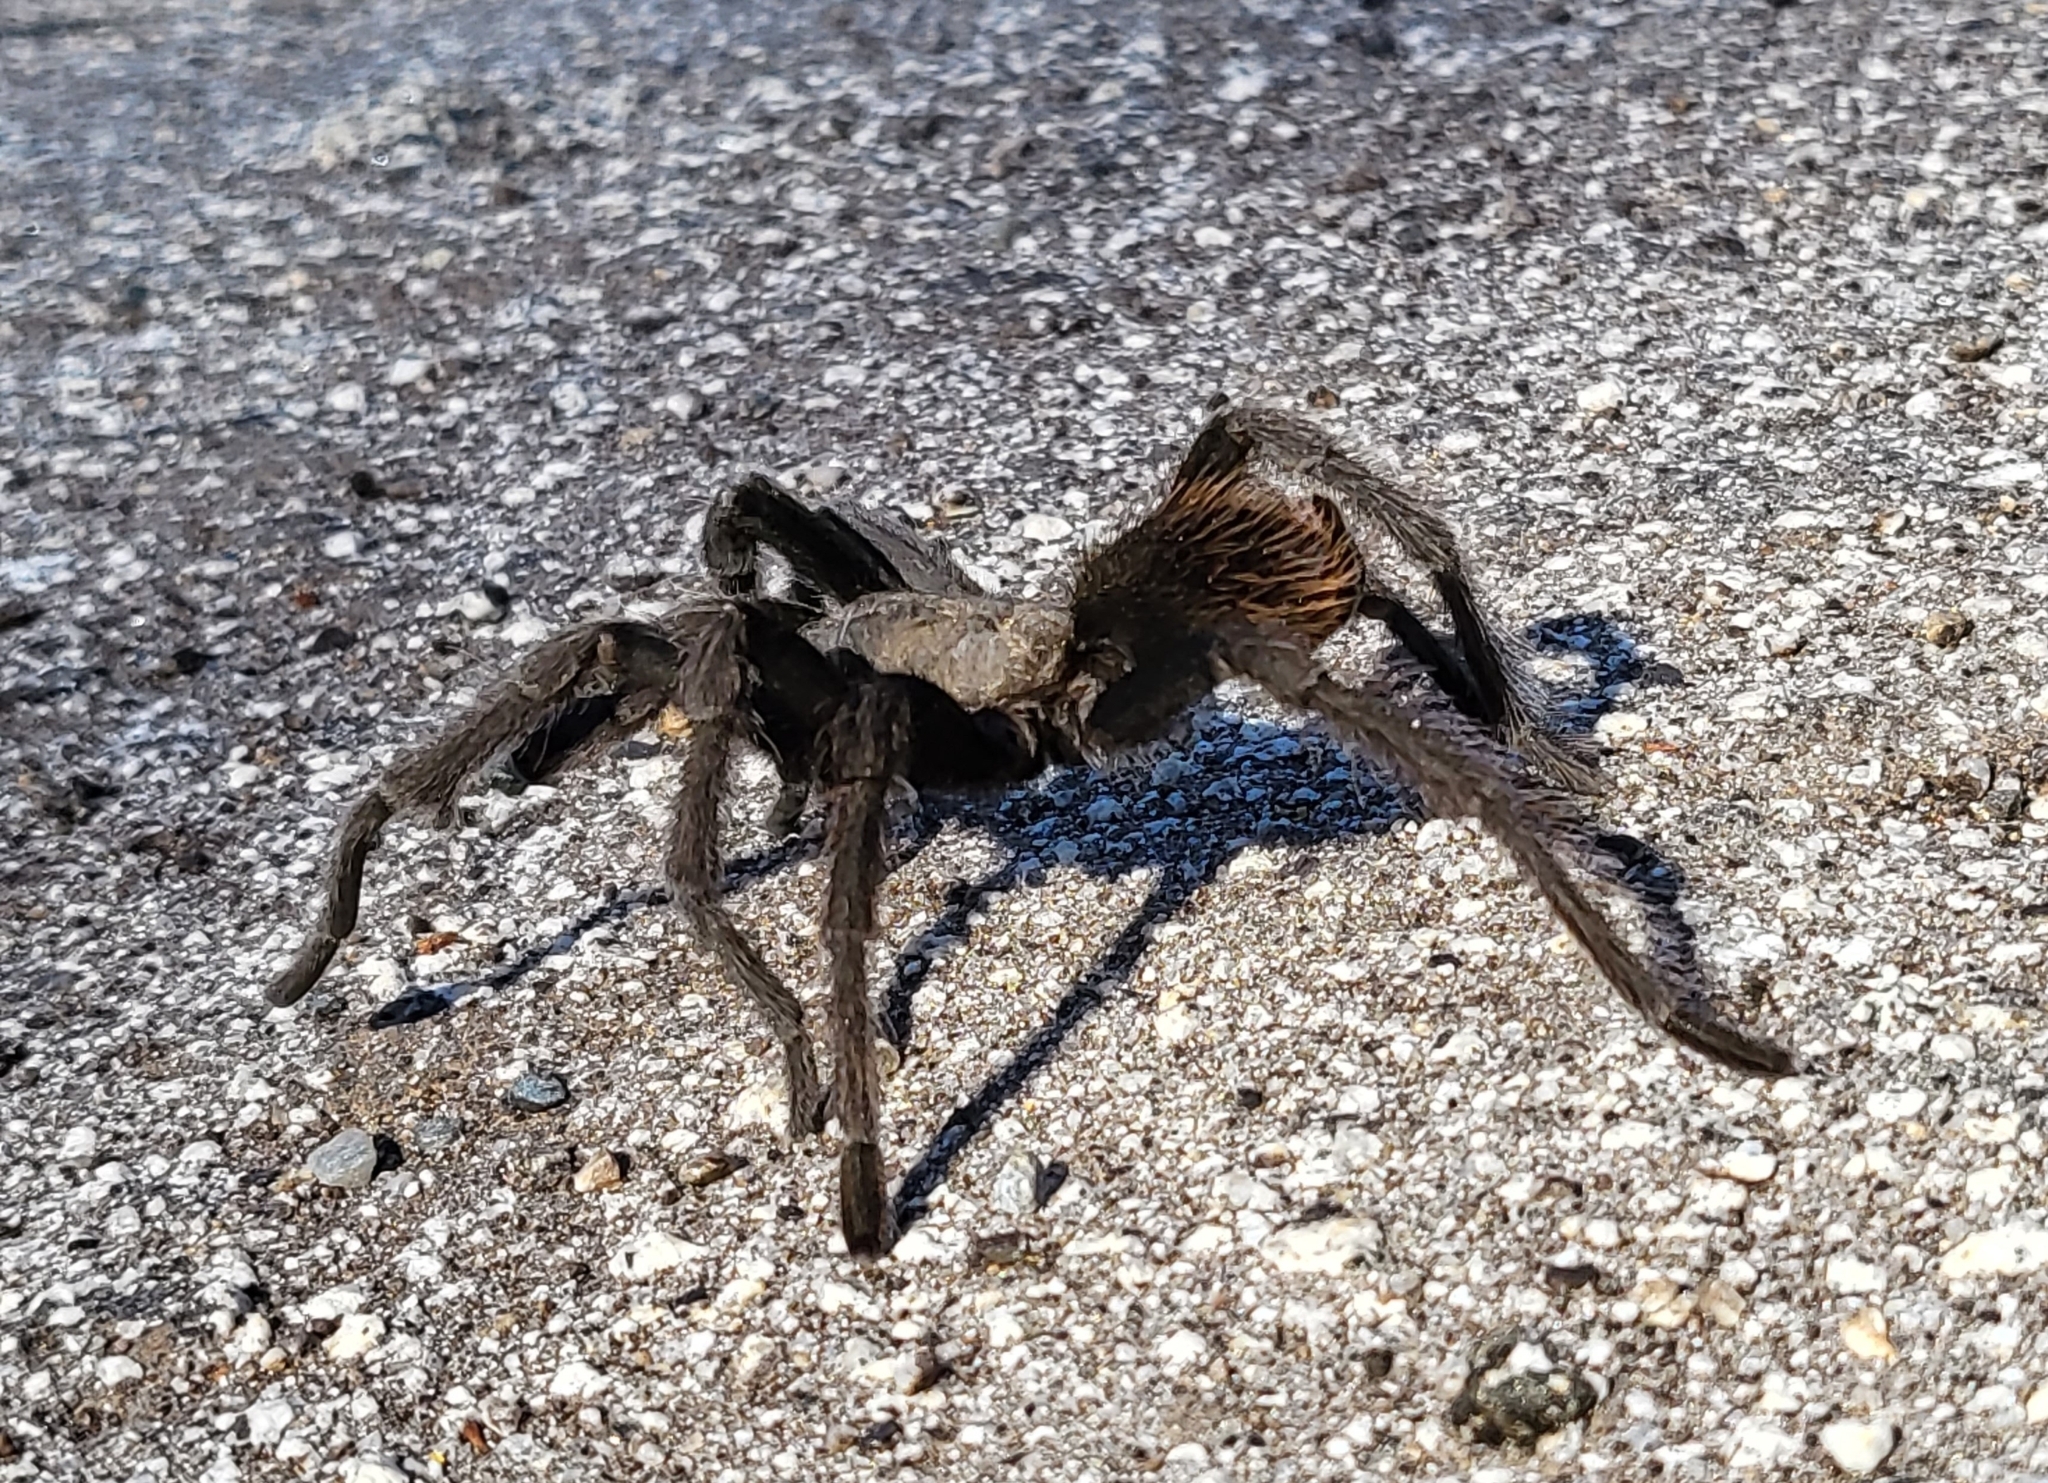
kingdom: Animalia
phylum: Arthropoda
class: Arachnida
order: Araneae
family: Theraphosidae
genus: Aphonopelma
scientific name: Aphonopelma johnnycashi
